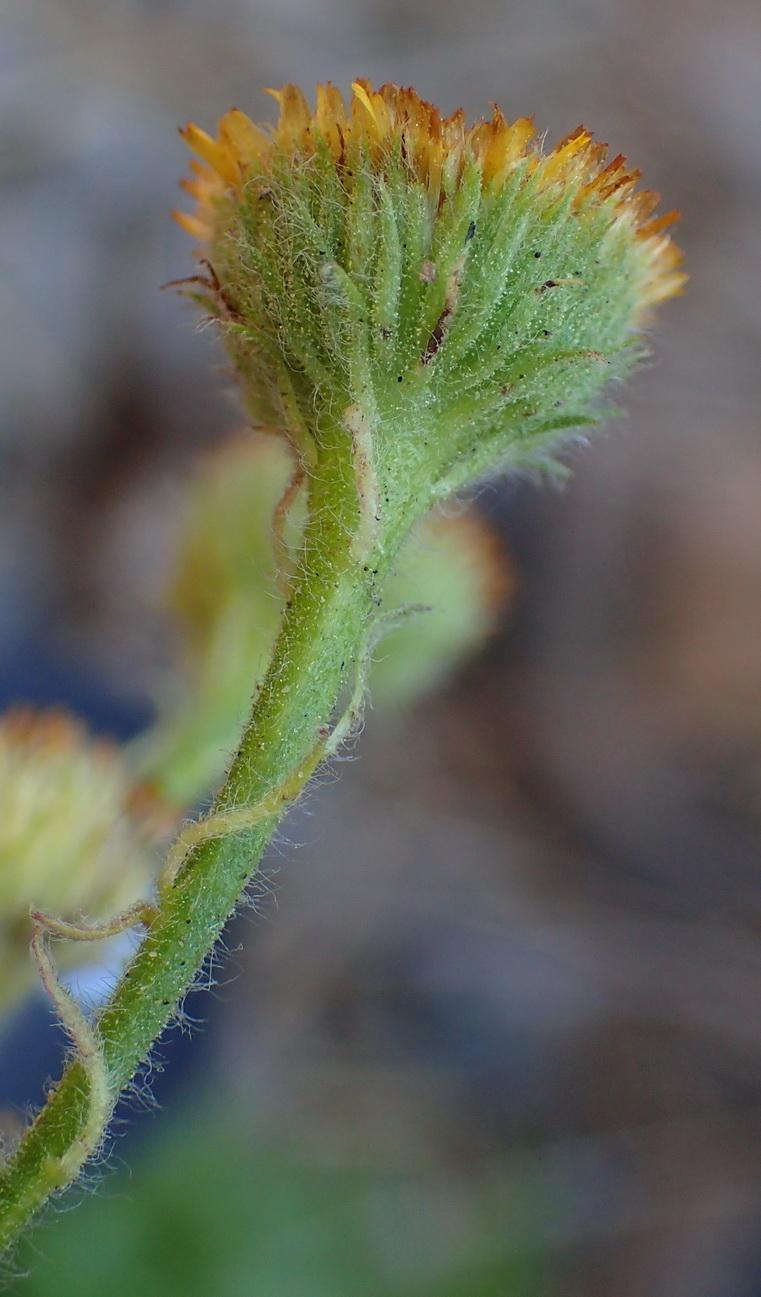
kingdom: Plantae
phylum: Tracheophyta
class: Magnoliopsida
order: Asterales
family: Asteraceae
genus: Pulicaria
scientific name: Pulicaria scabra
